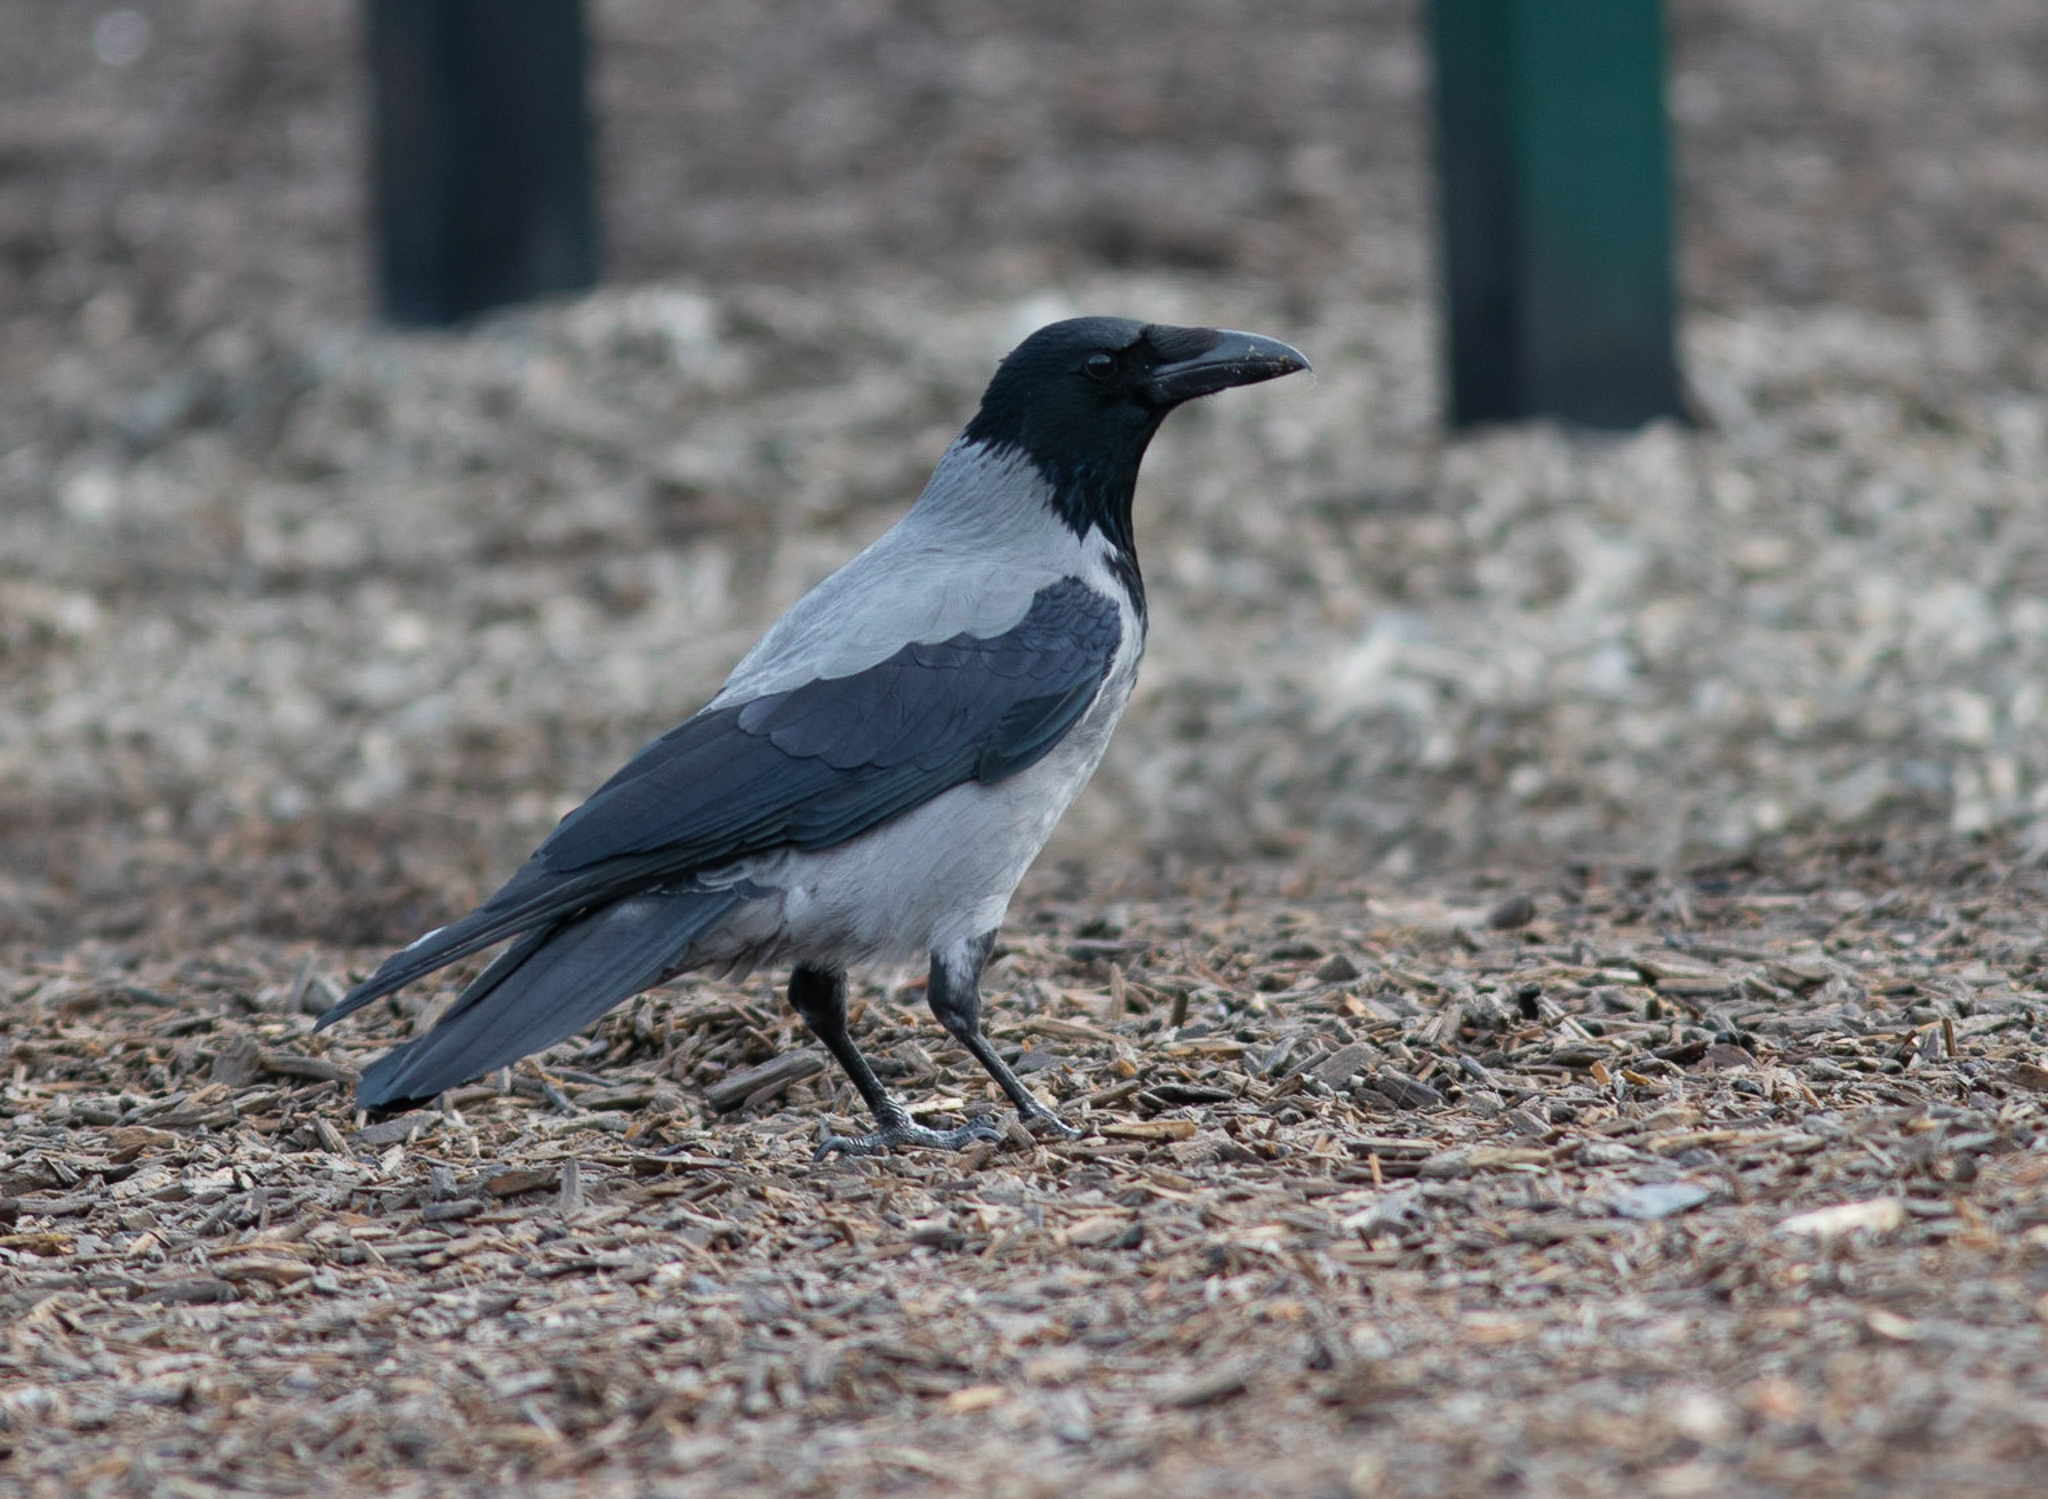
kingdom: Animalia
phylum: Chordata
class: Aves
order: Passeriformes
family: Corvidae
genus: Corvus
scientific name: Corvus cornix
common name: Hooded crow
